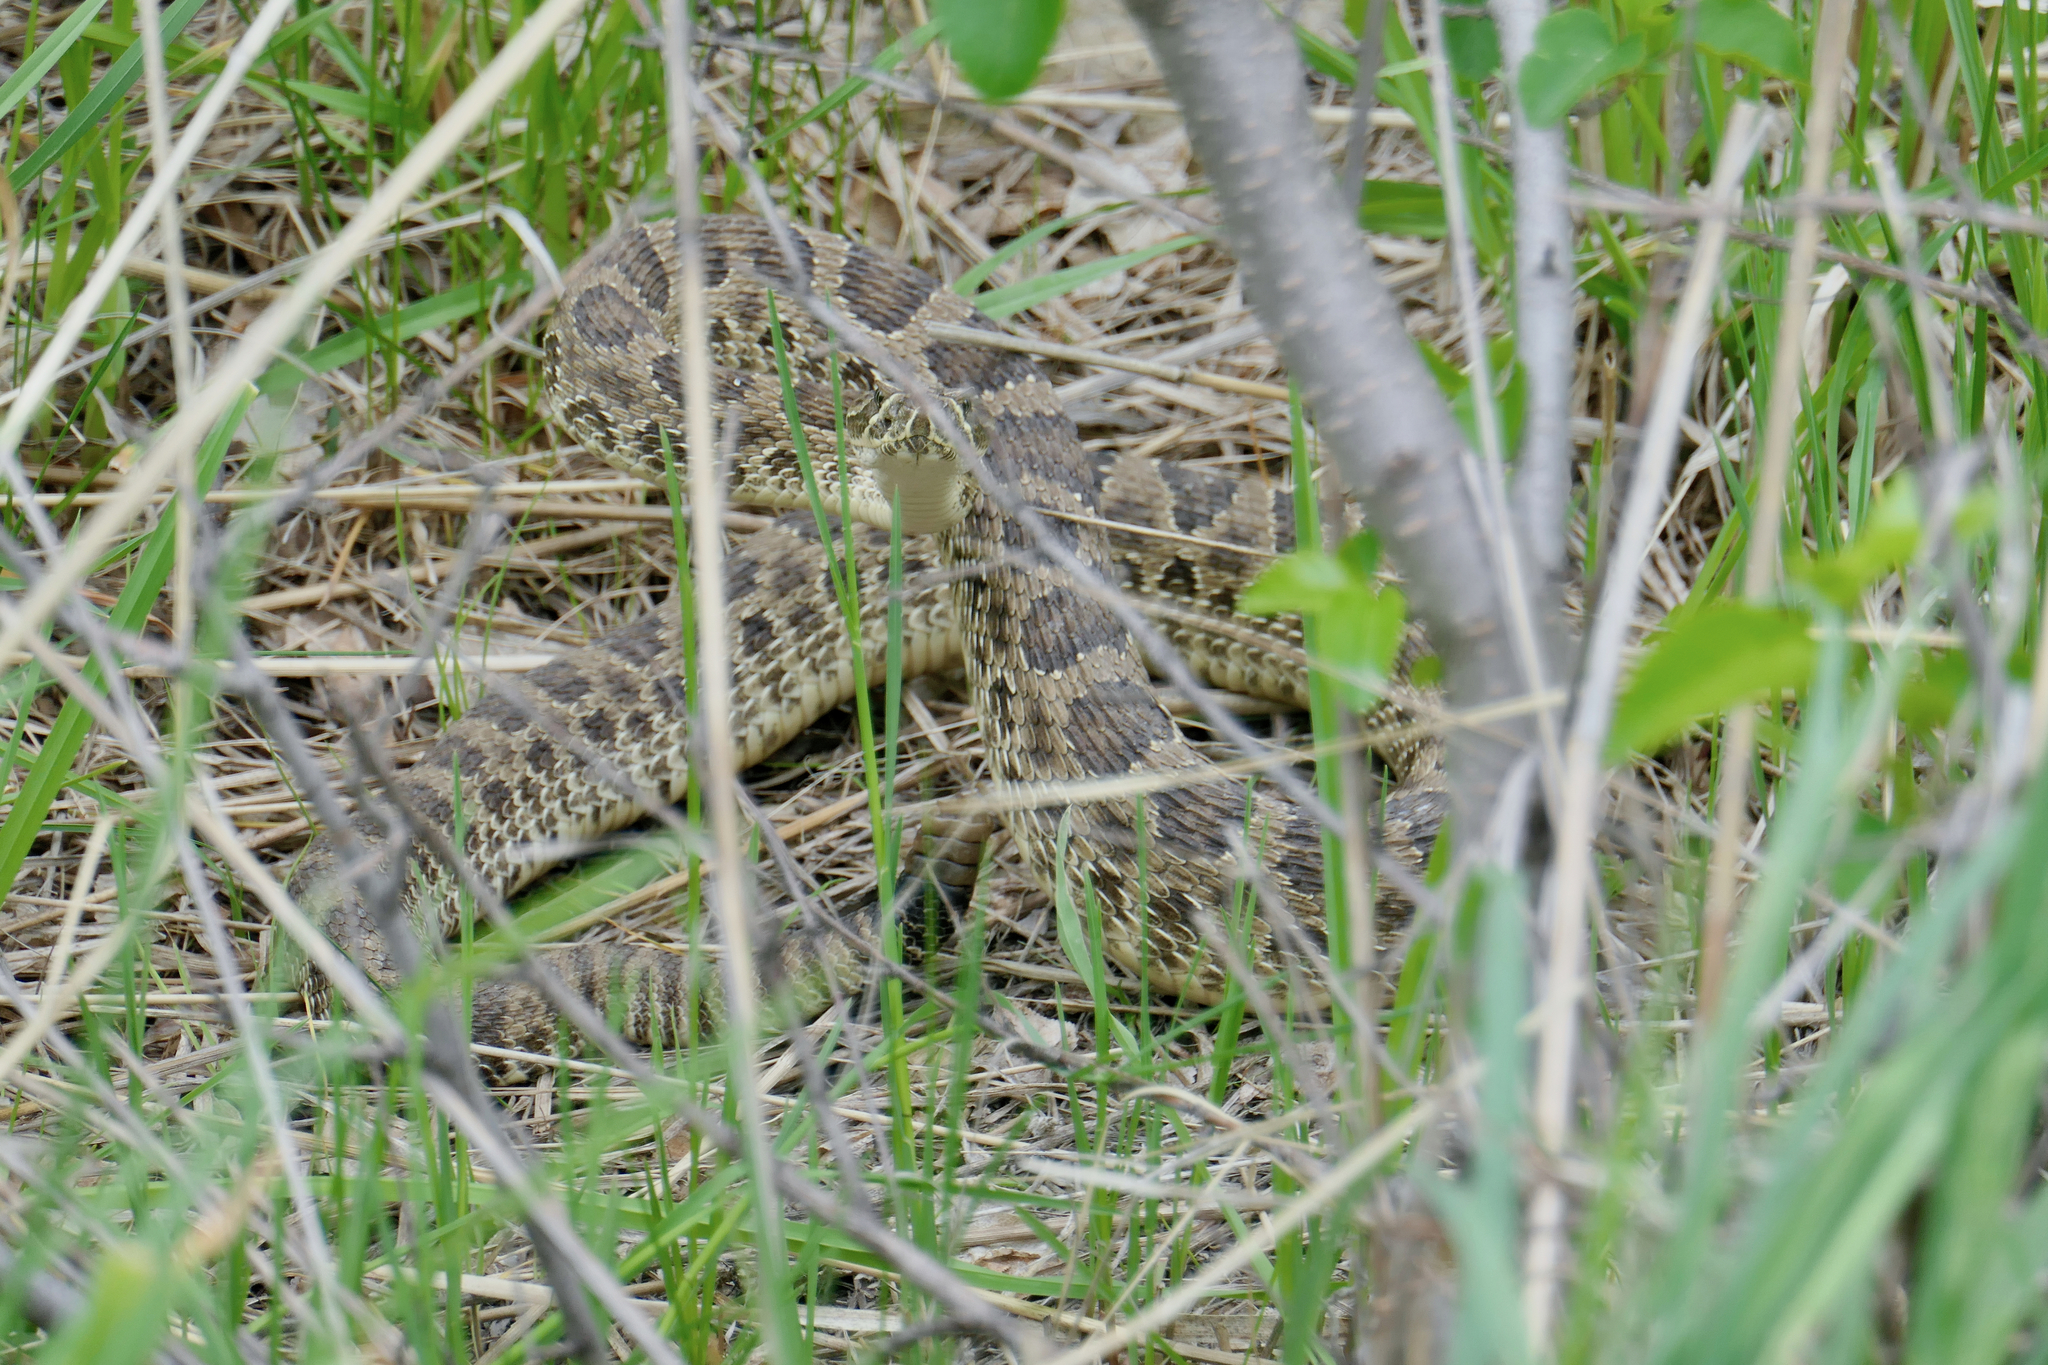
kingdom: Animalia
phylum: Chordata
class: Squamata
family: Viperidae
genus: Crotalus
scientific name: Crotalus viridis
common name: Prairie rattlesnake
